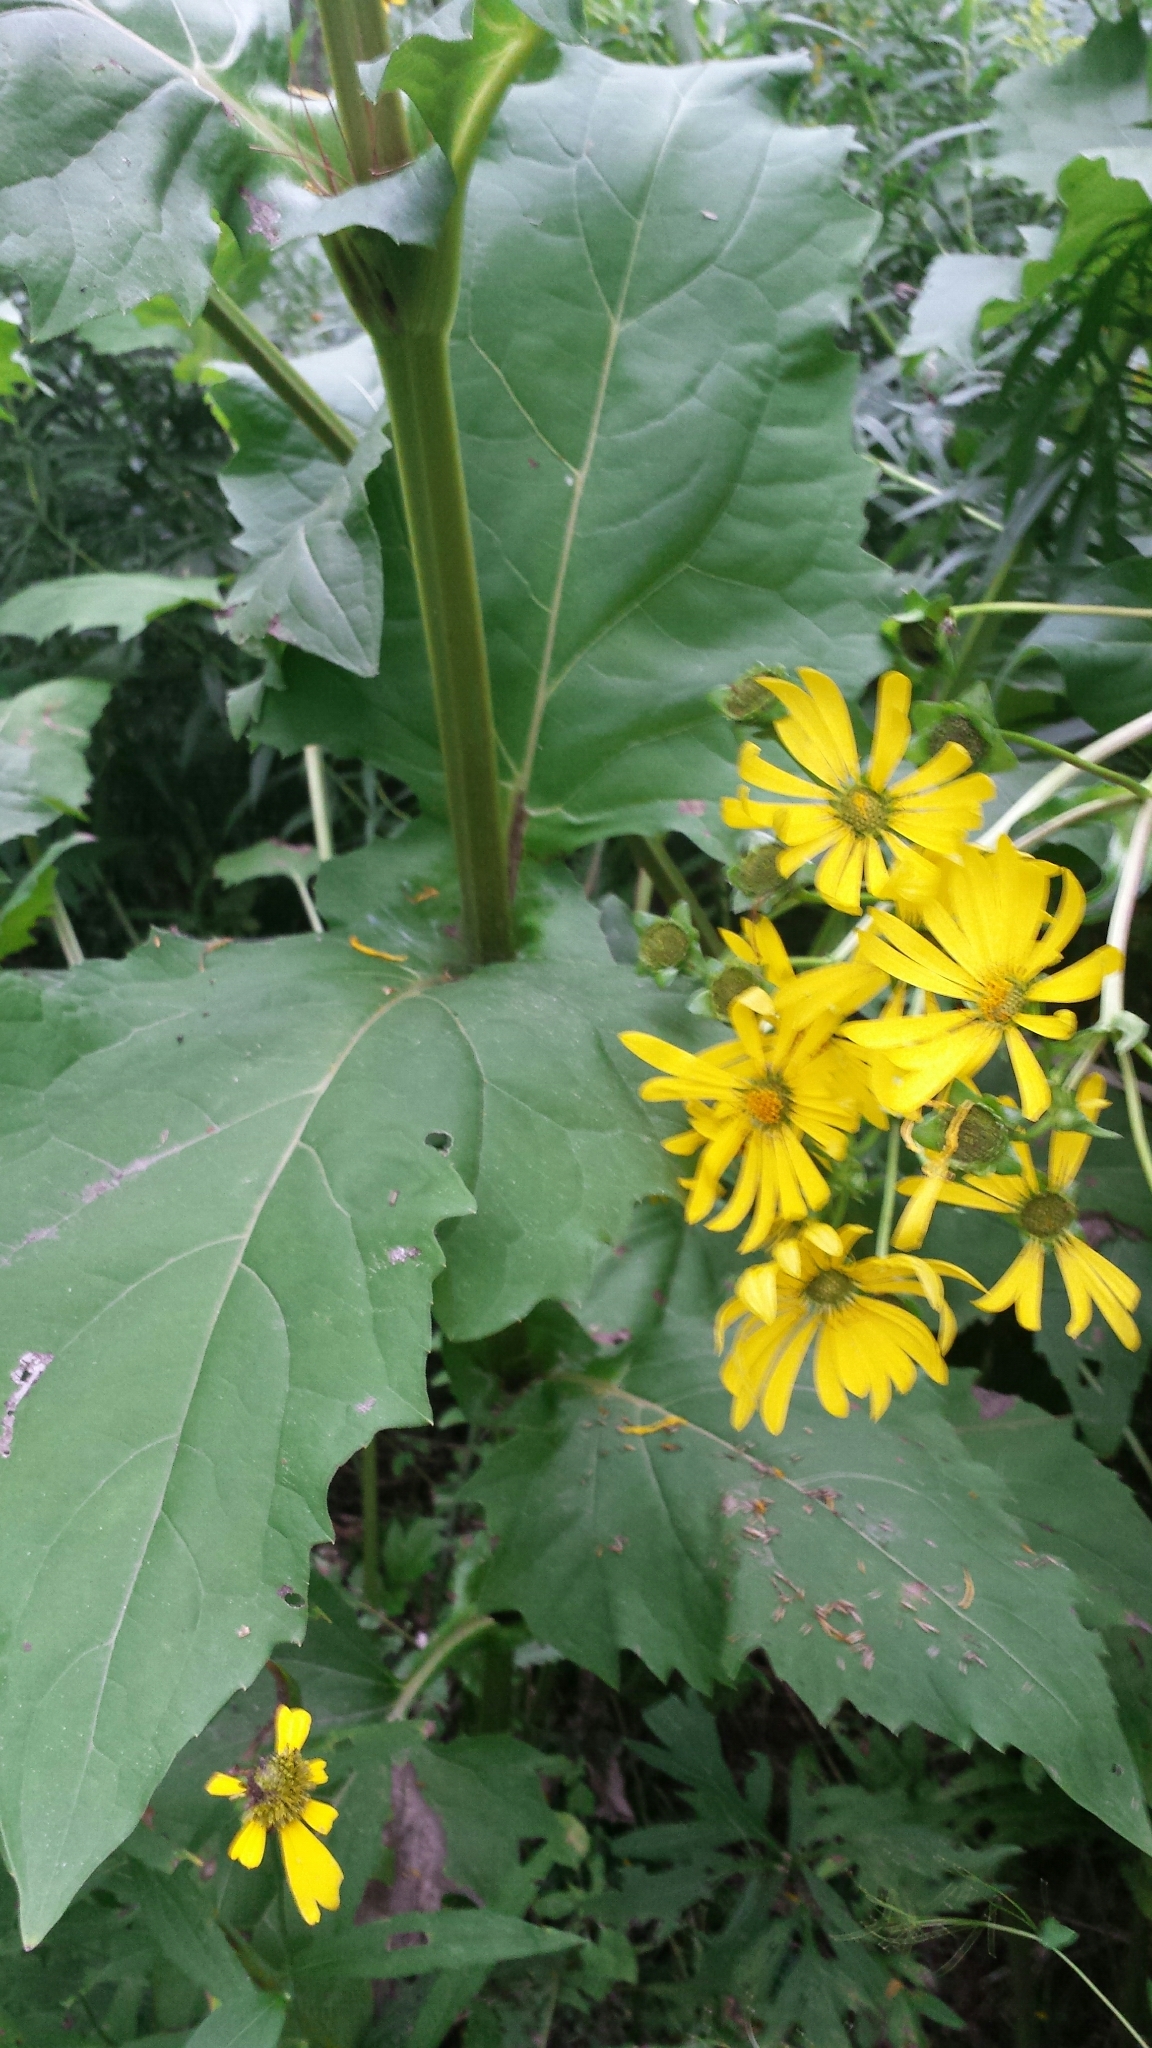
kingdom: Plantae
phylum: Tracheophyta
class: Magnoliopsida
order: Asterales
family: Asteraceae
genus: Silphium
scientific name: Silphium perfoliatum
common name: Cup-plant
